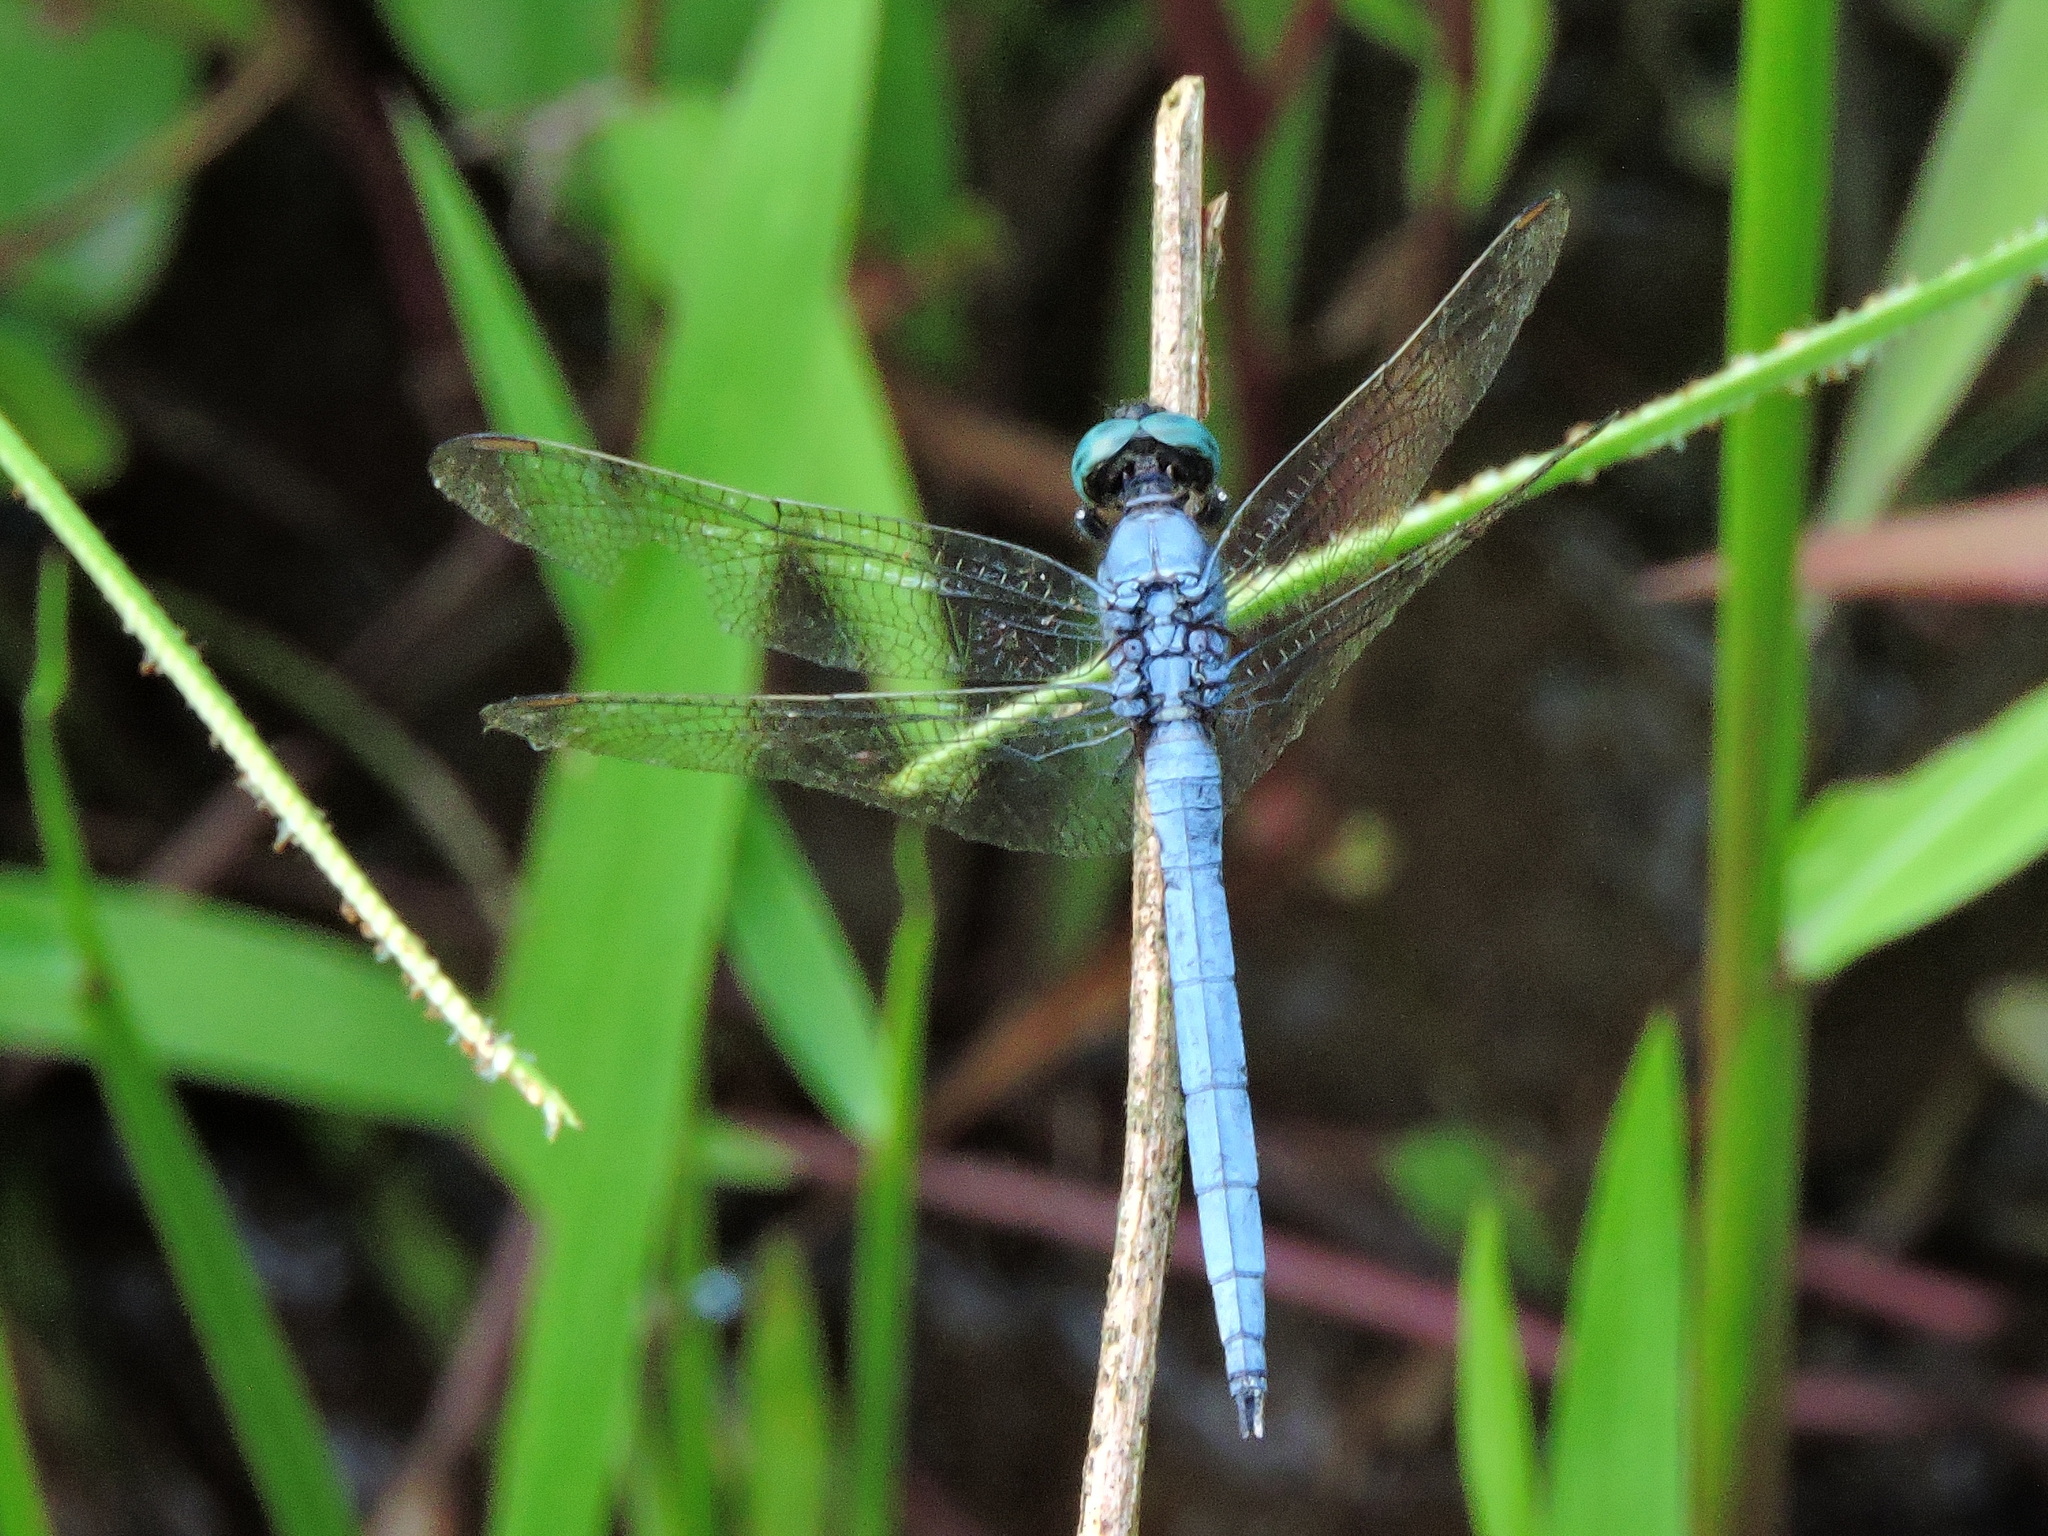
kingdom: Animalia
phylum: Arthropoda
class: Insecta
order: Odonata
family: Libellulidae
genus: Orthetrum
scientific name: Orthetrum luzonicum
